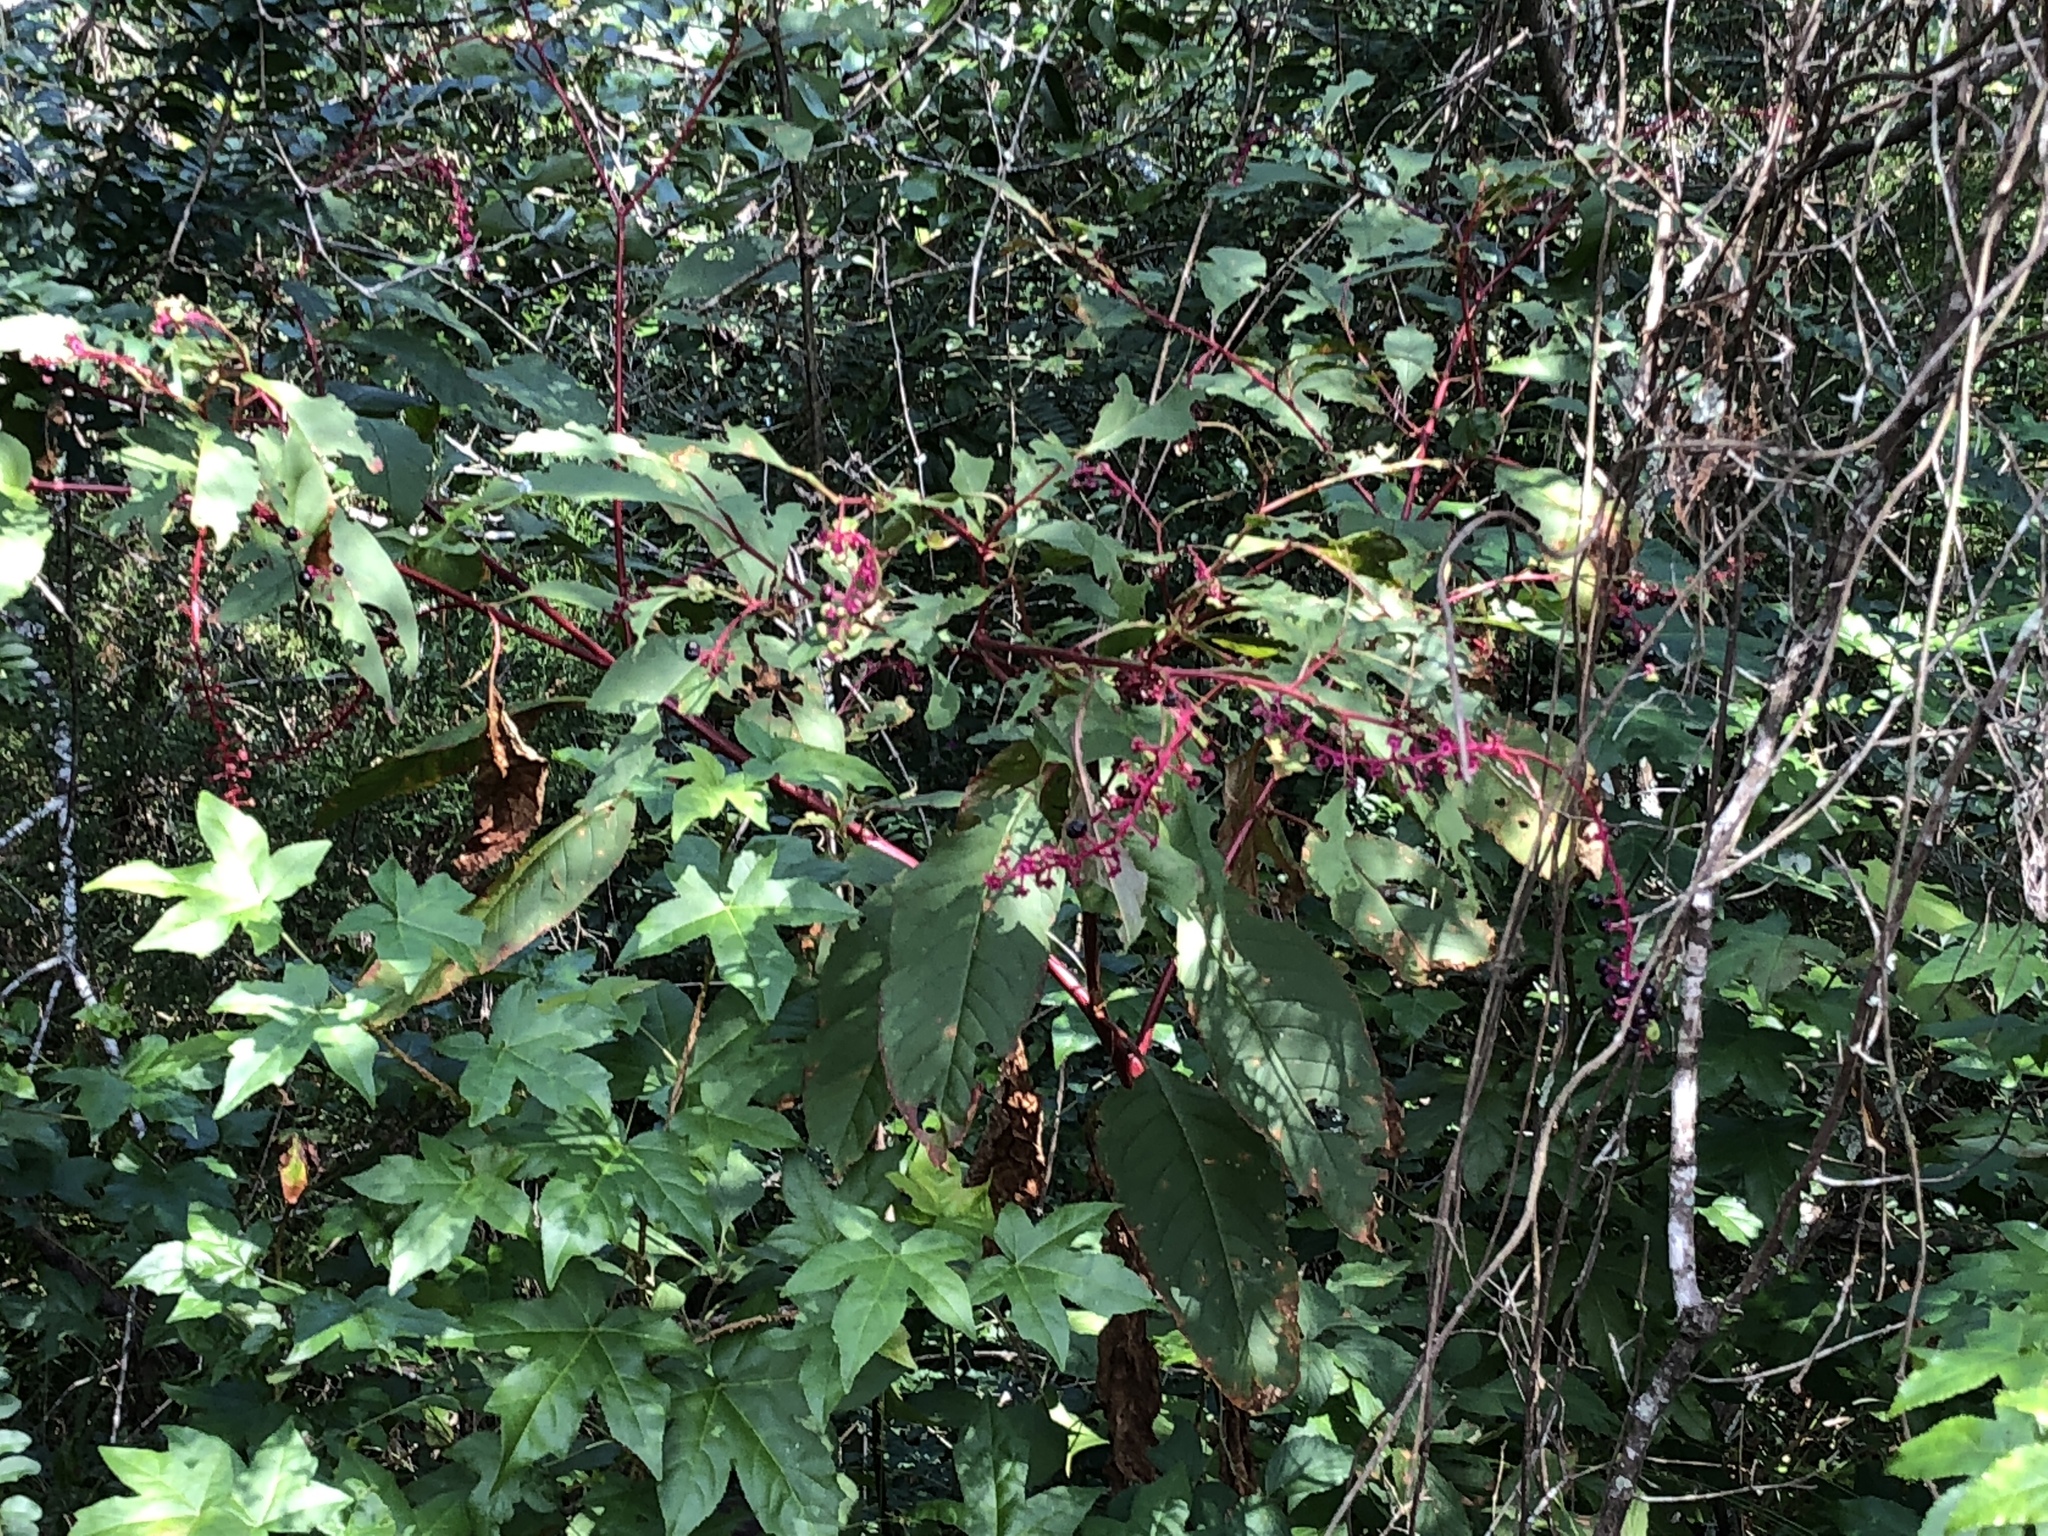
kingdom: Plantae
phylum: Tracheophyta
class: Magnoliopsida
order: Caryophyllales
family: Phytolaccaceae
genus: Phytolacca
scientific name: Phytolacca americana
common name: American pokeweed
